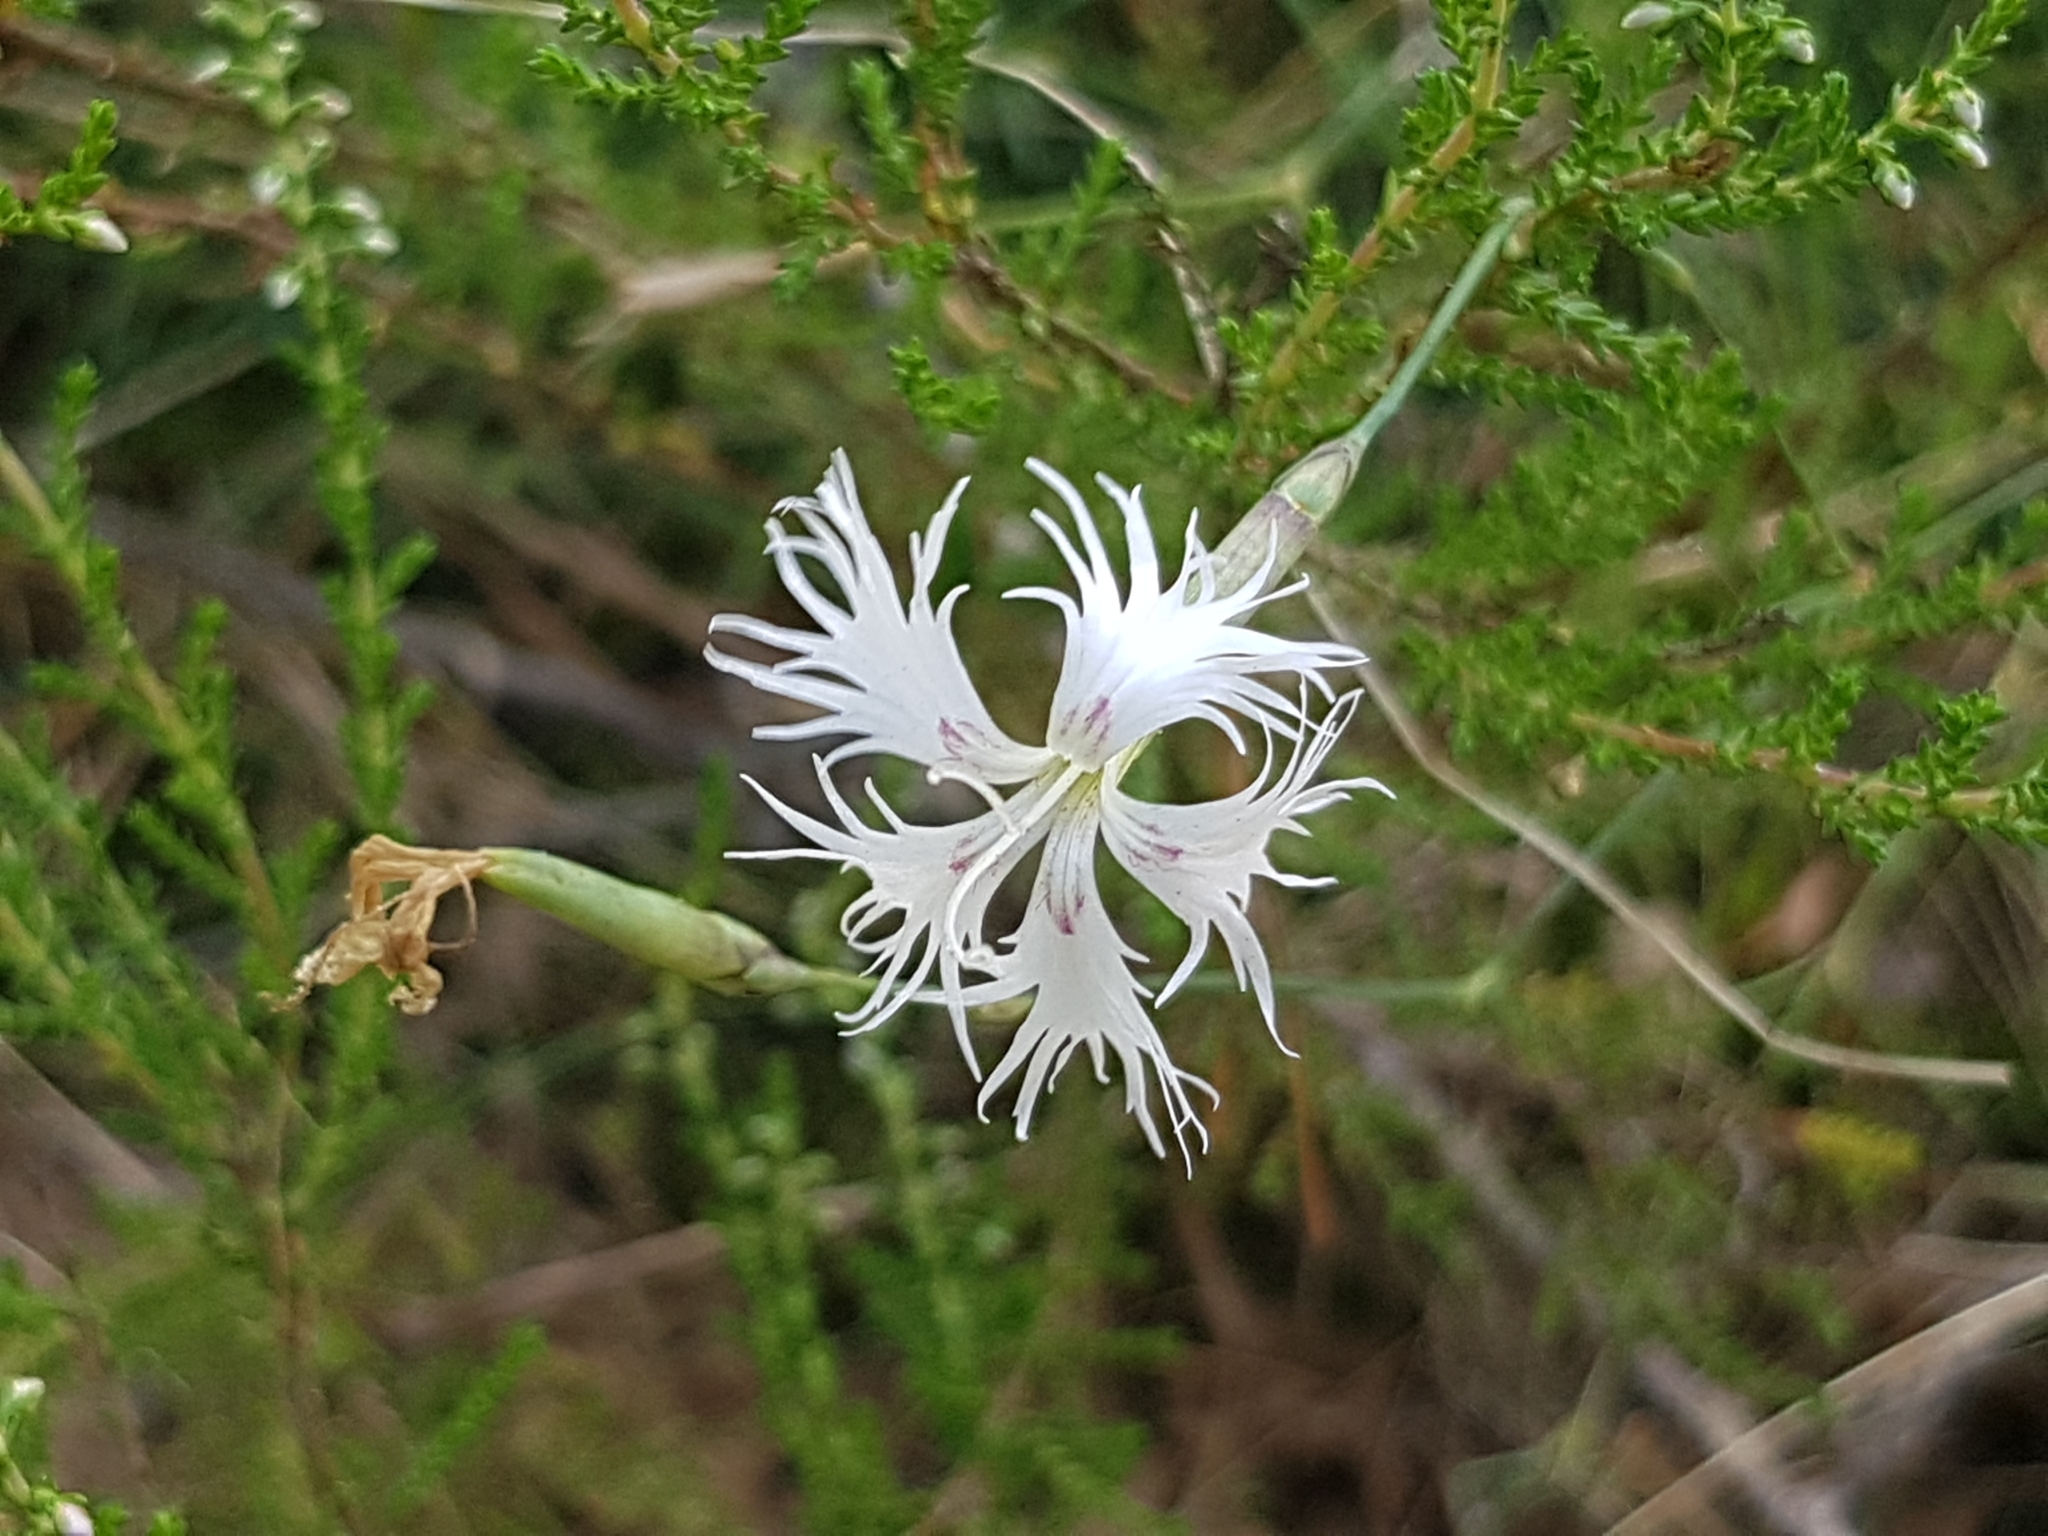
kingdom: Plantae
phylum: Tracheophyta
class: Magnoliopsida
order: Caryophyllales
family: Caryophyllaceae
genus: Dianthus
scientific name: Dianthus arenarius
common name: Stone pink
